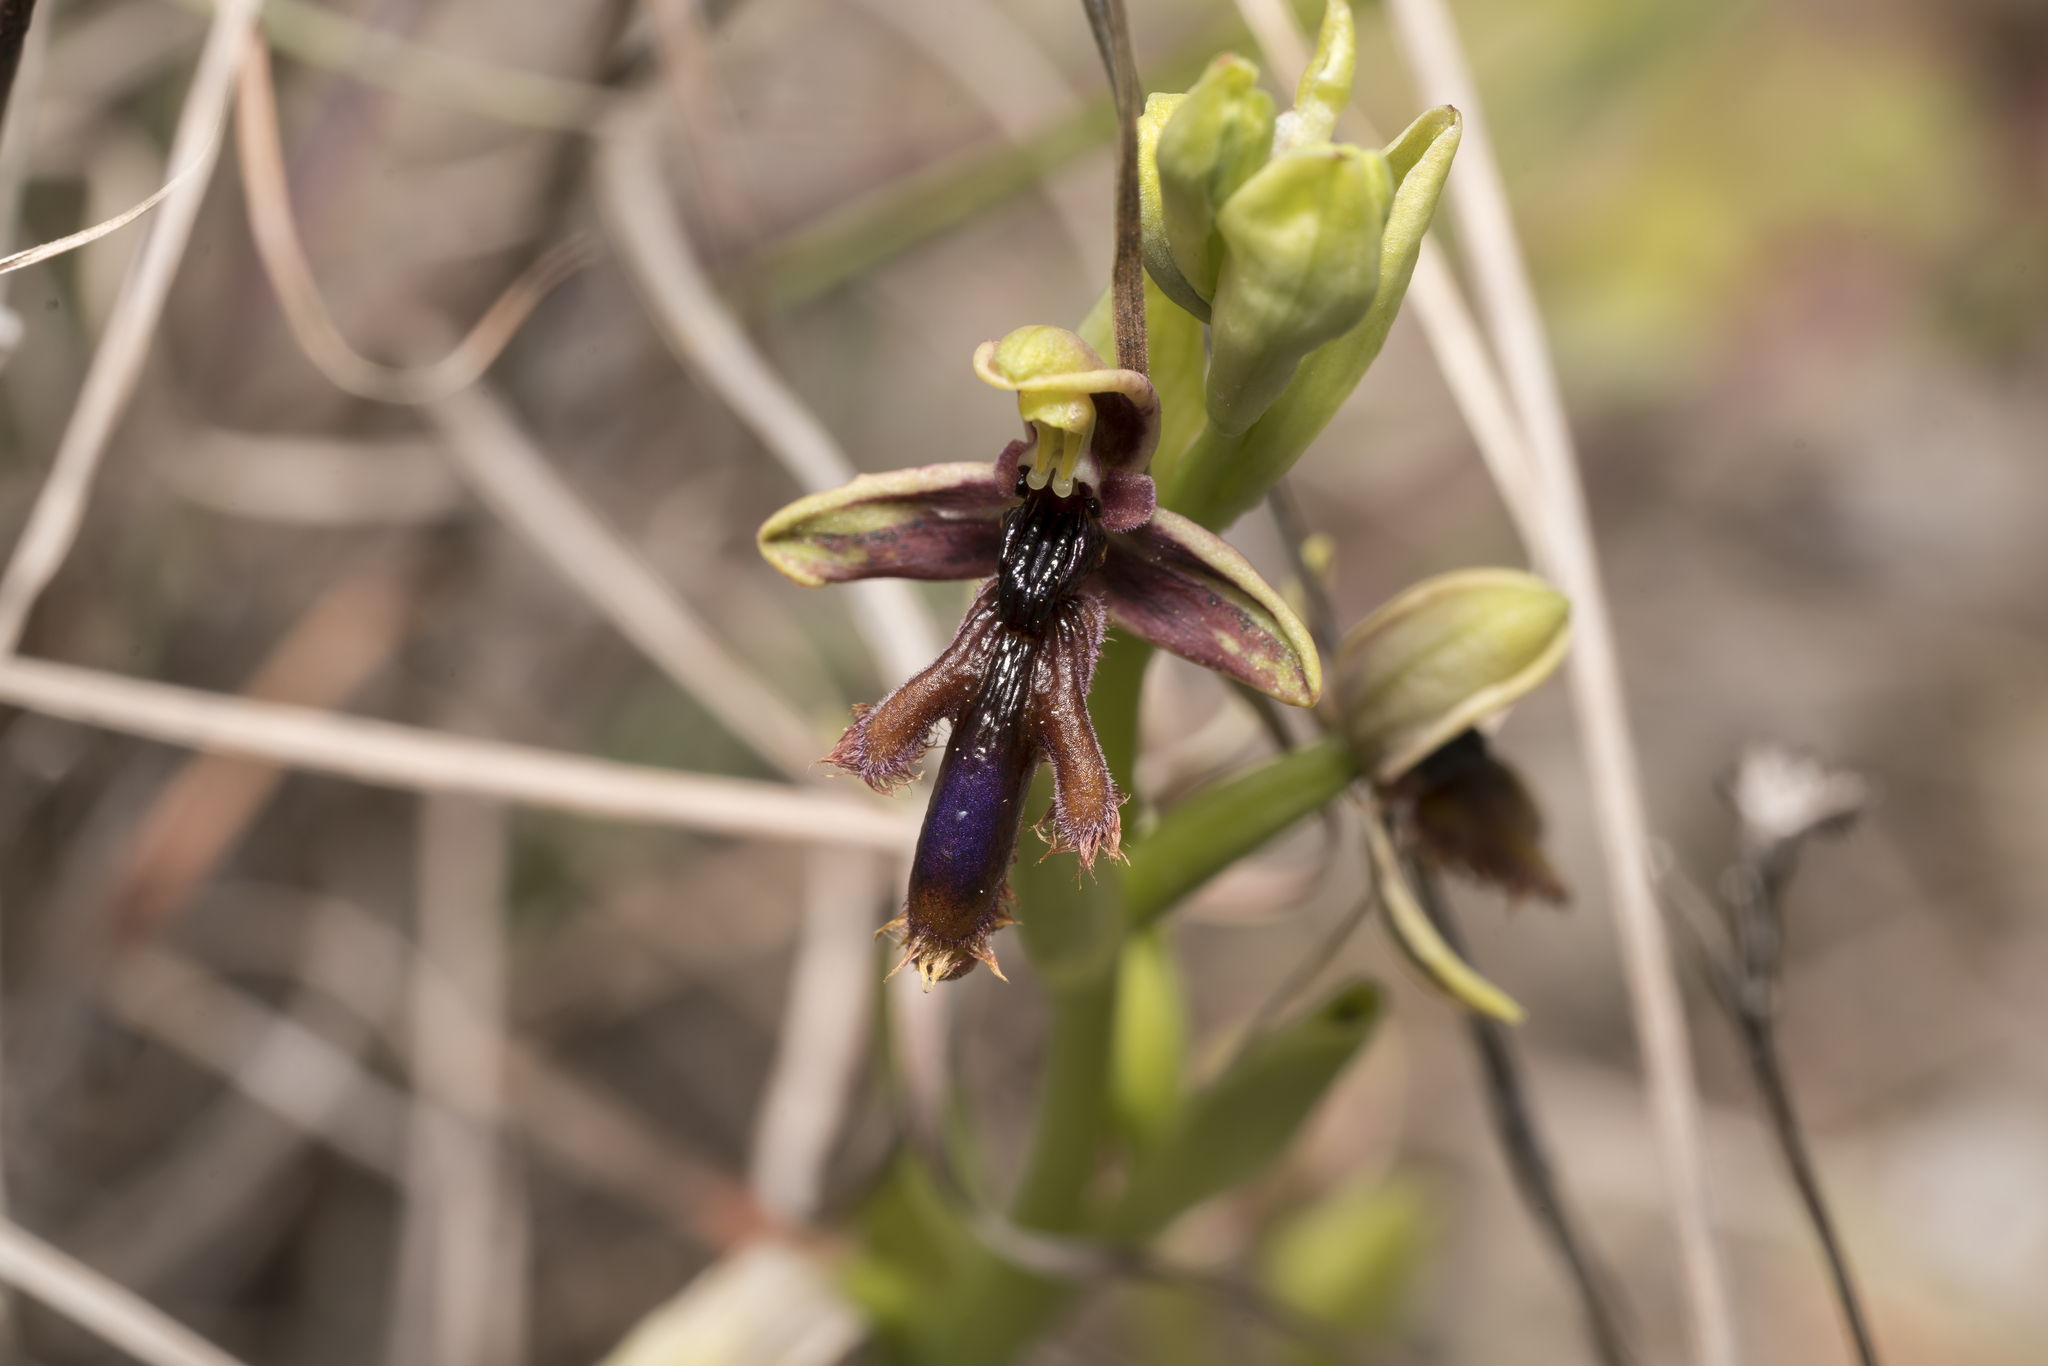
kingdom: Plantae
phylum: Tracheophyta
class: Liliopsida
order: Asparagales
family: Orchidaceae
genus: Ophrys
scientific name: Ophrys speculum
